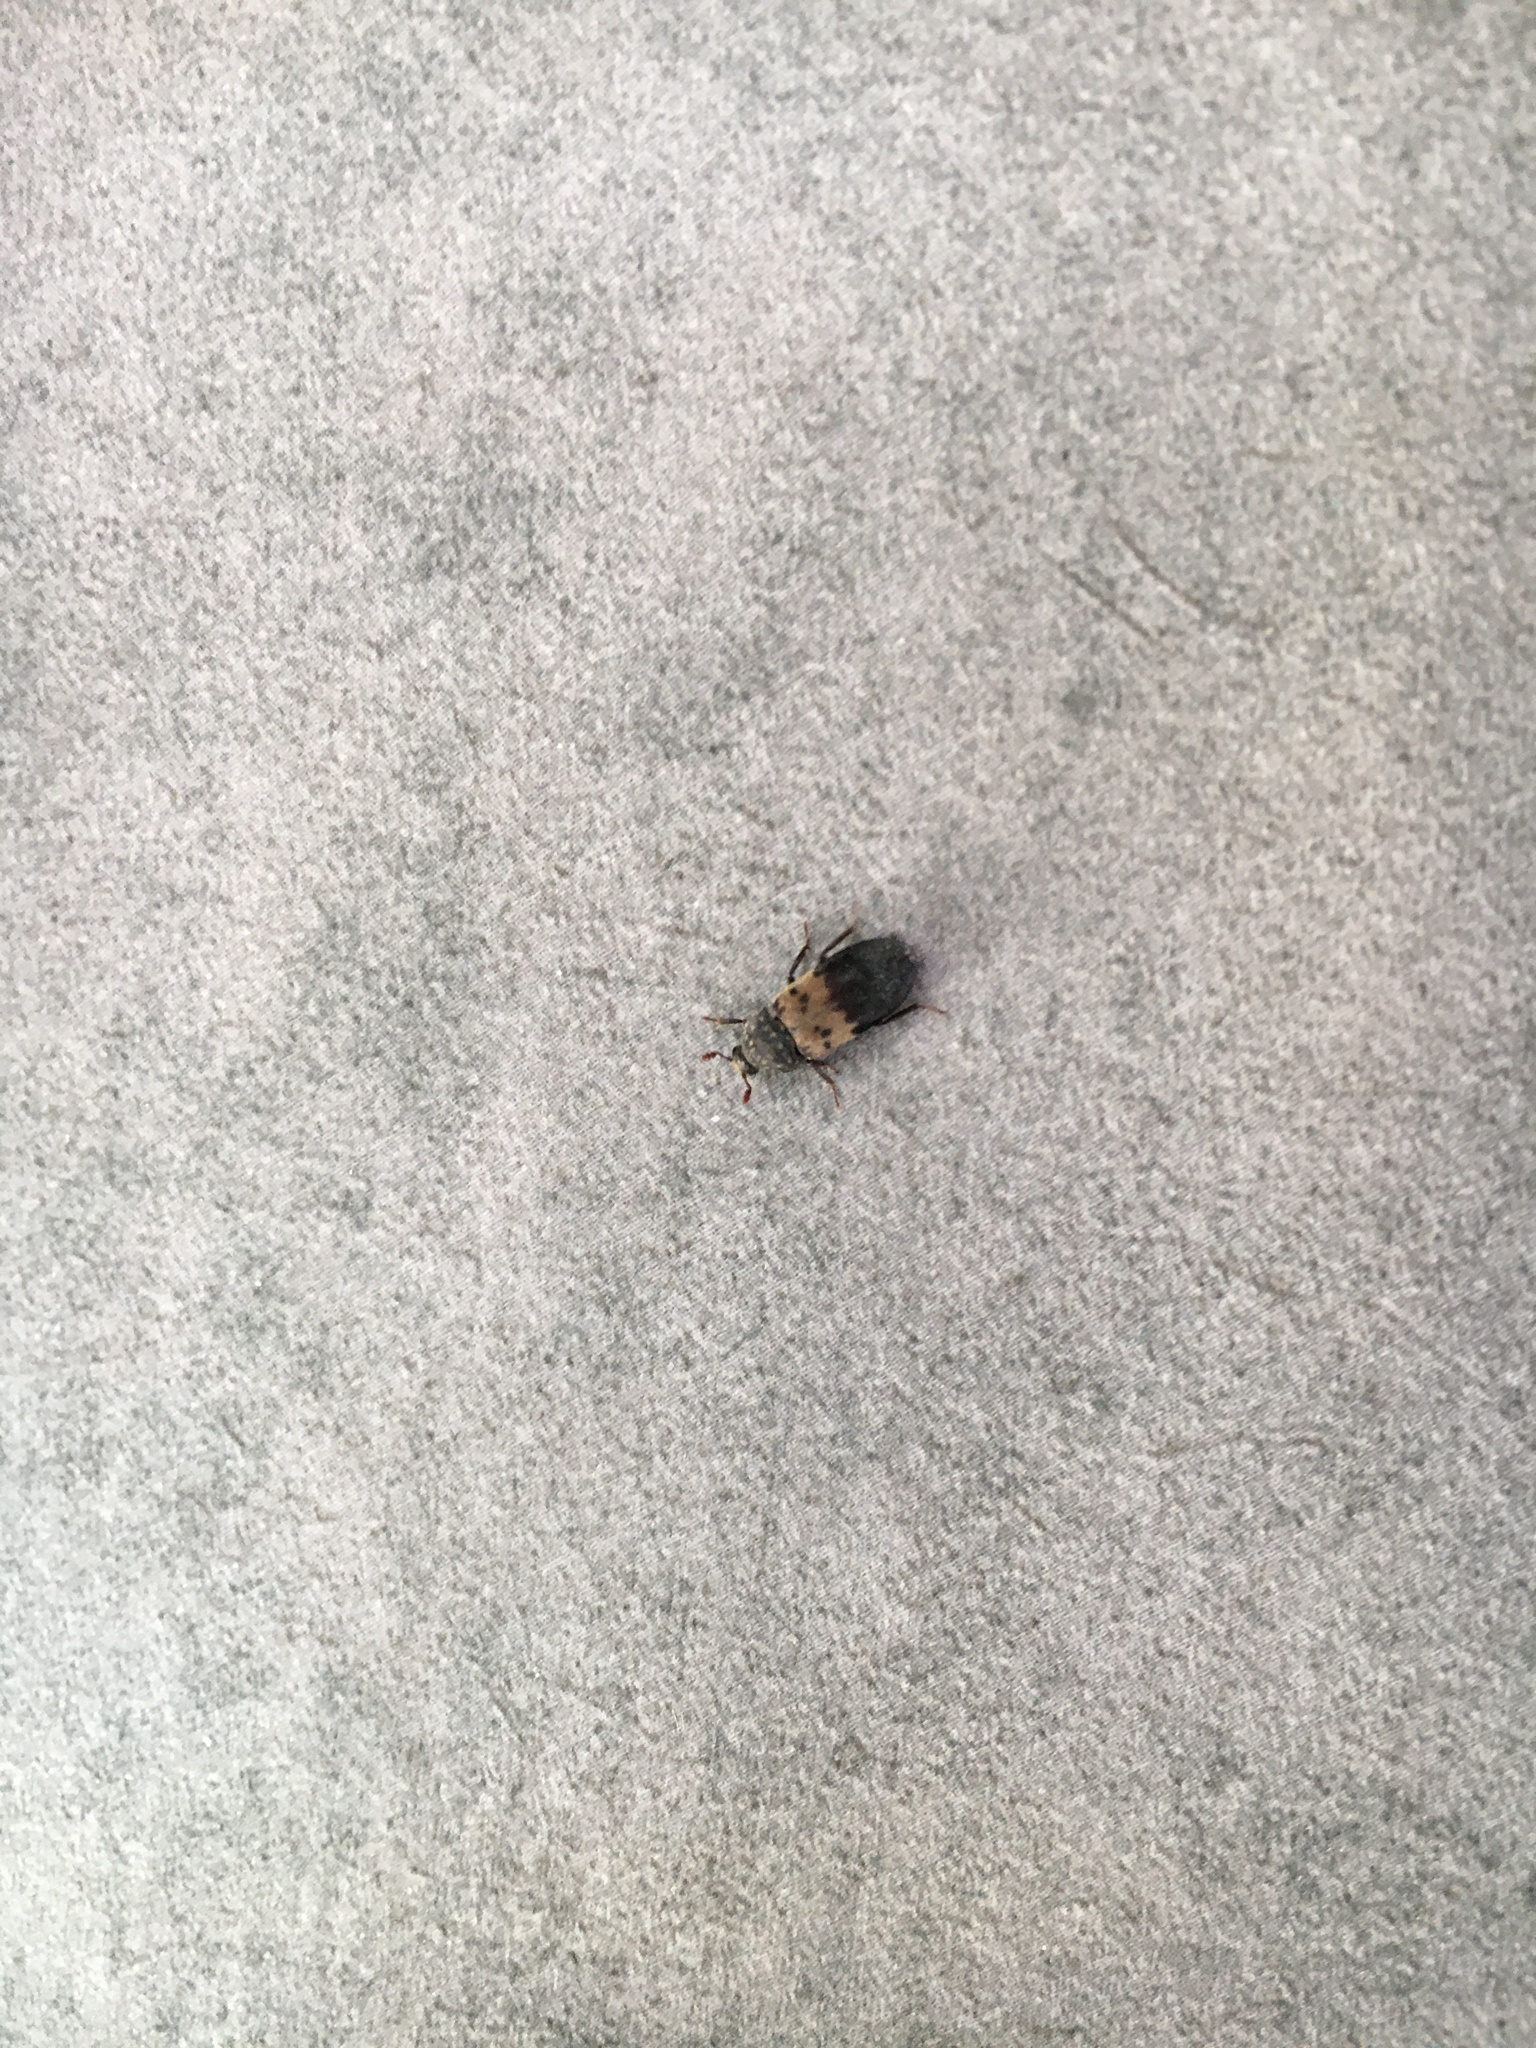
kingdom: Animalia
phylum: Arthropoda
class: Insecta
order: Coleoptera
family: Dermestidae
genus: Dermestes
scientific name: Dermestes lardarius
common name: Larder beetle
